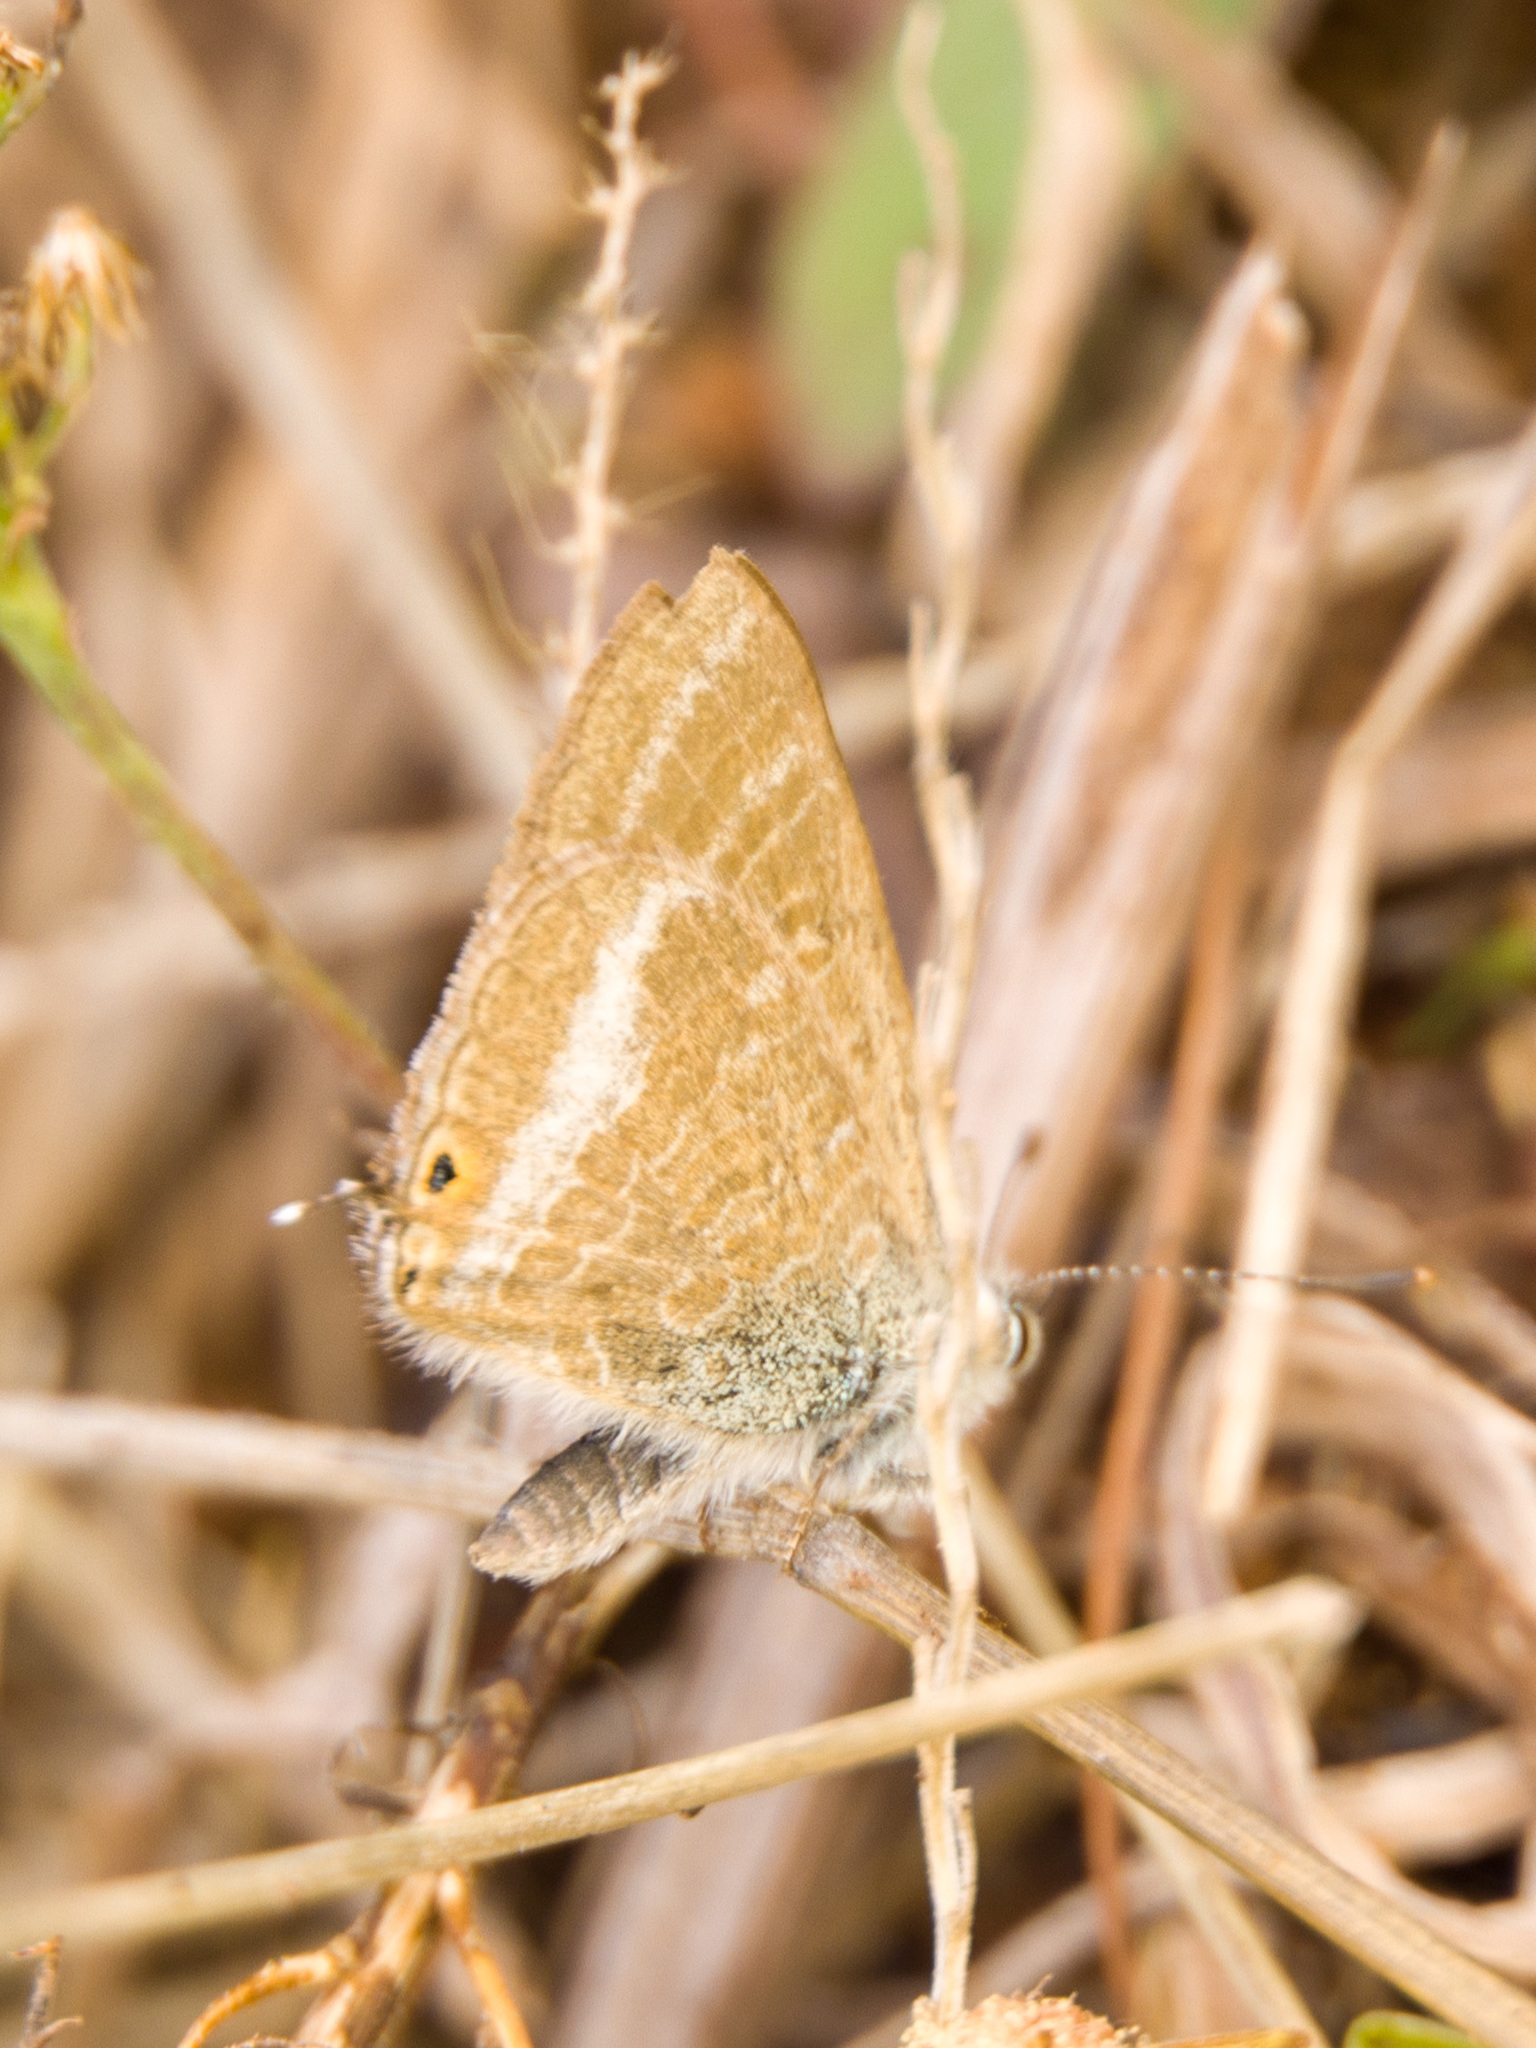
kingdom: Animalia
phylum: Arthropoda
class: Insecta
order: Lepidoptera
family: Lycaenidae
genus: Lampides
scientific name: Lampides boeticus
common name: Long-tailed blue
